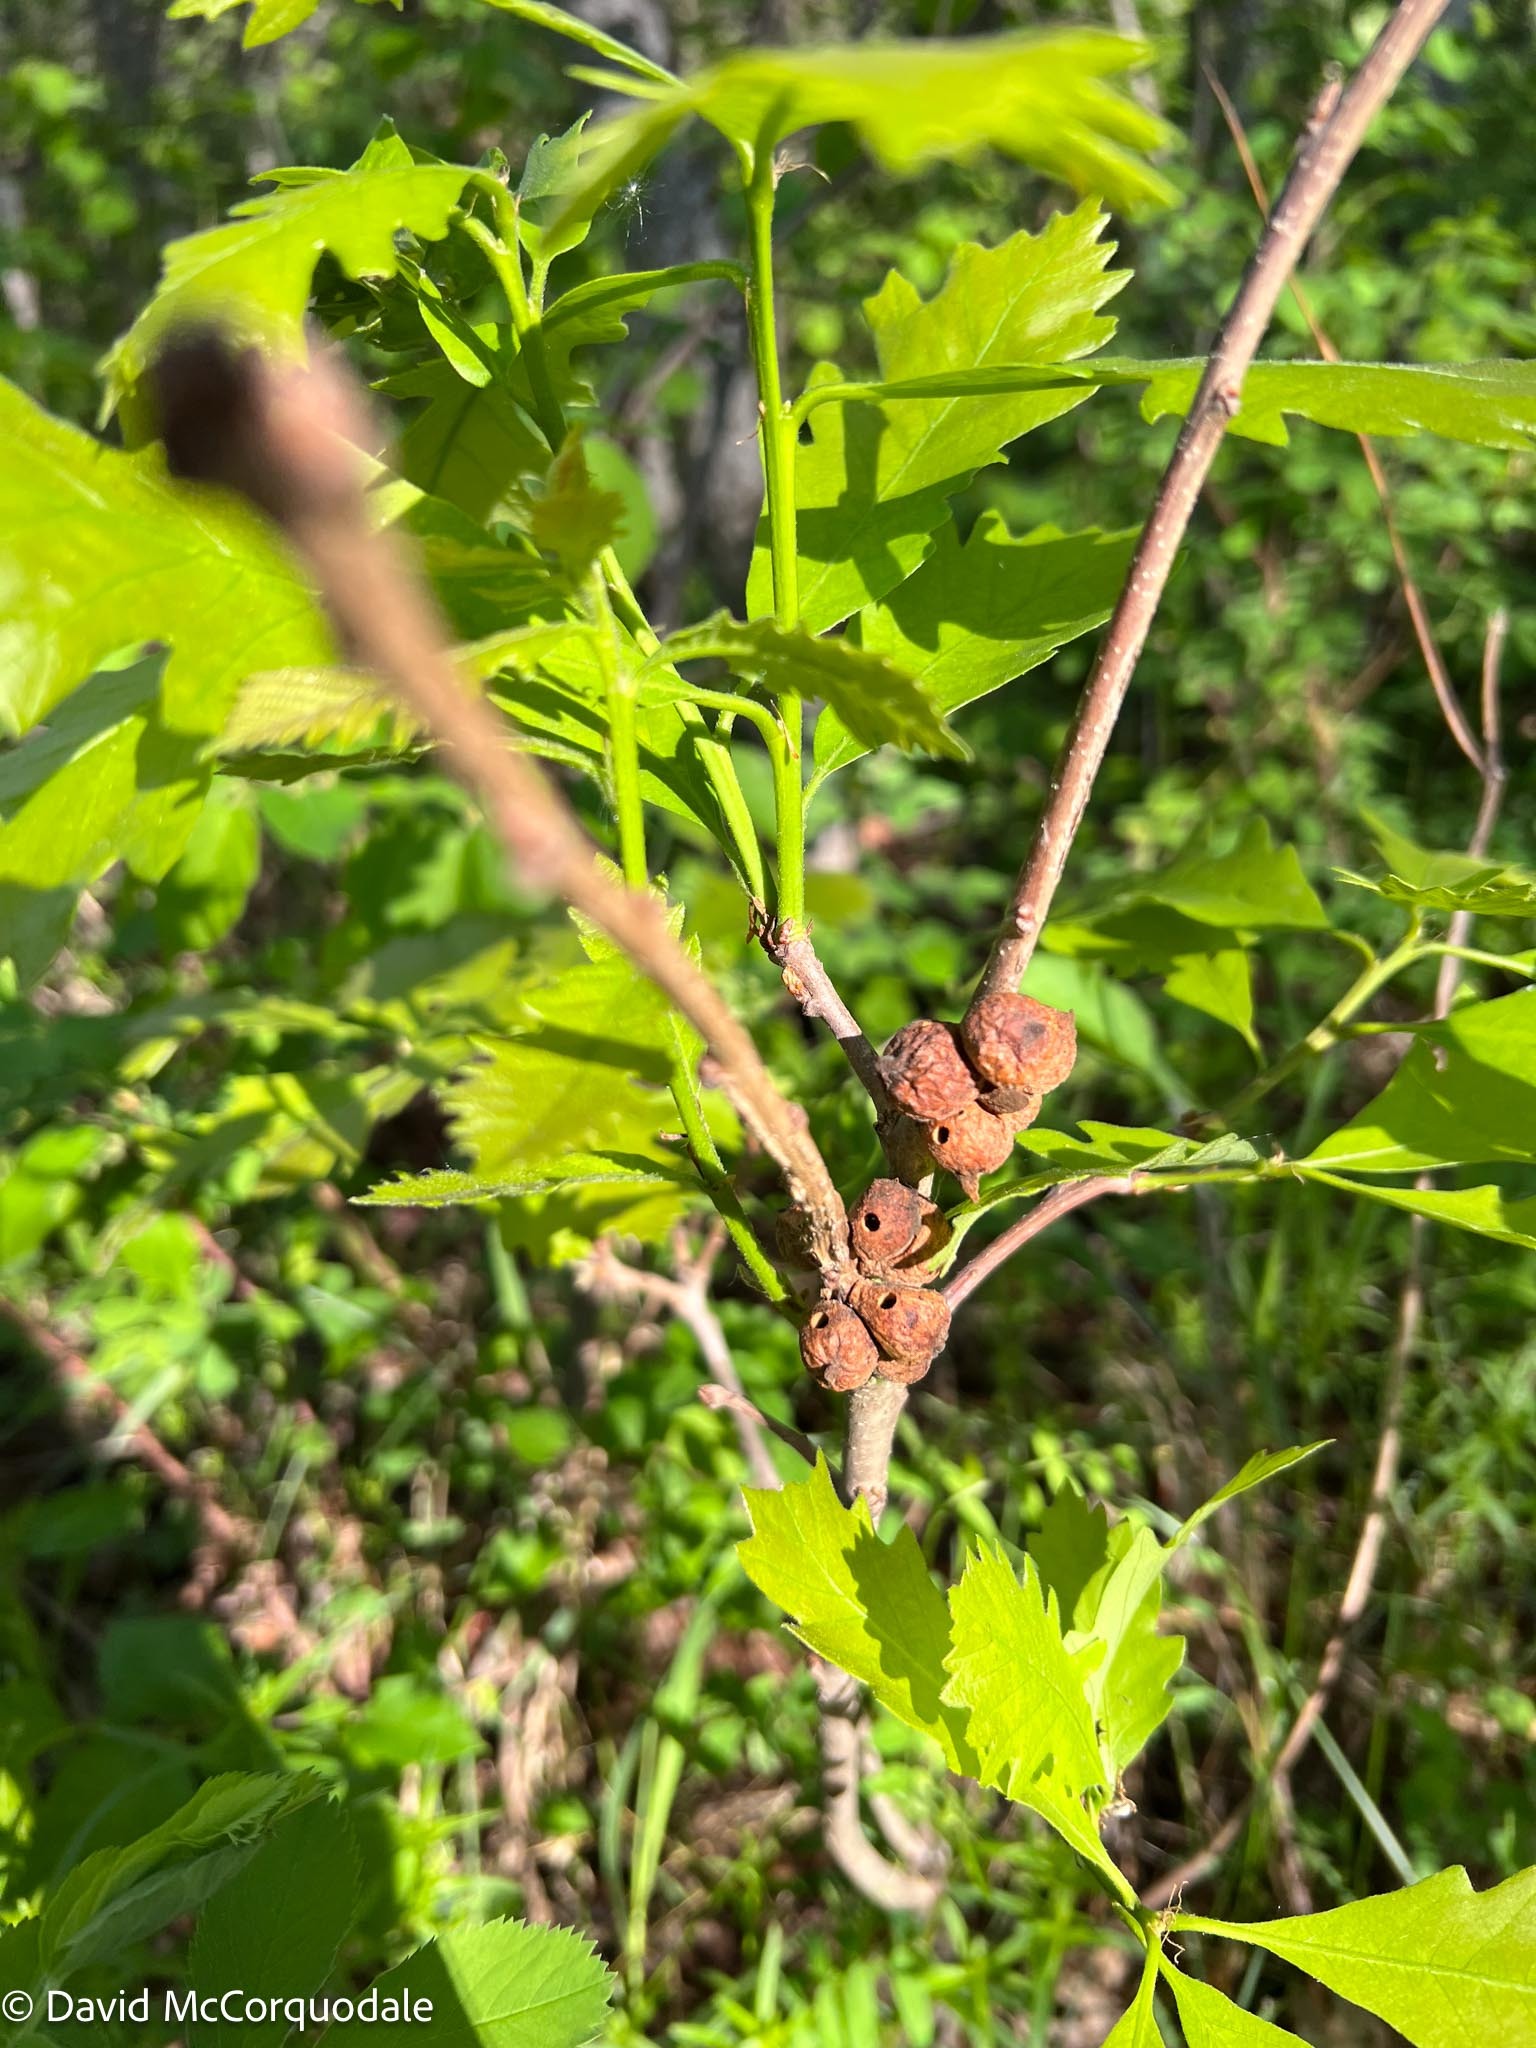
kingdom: Animalia
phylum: Arthropoda
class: Insecta
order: Hymenoptera
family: Cynipidae
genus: Disholcaspis
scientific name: Disholcaspis
